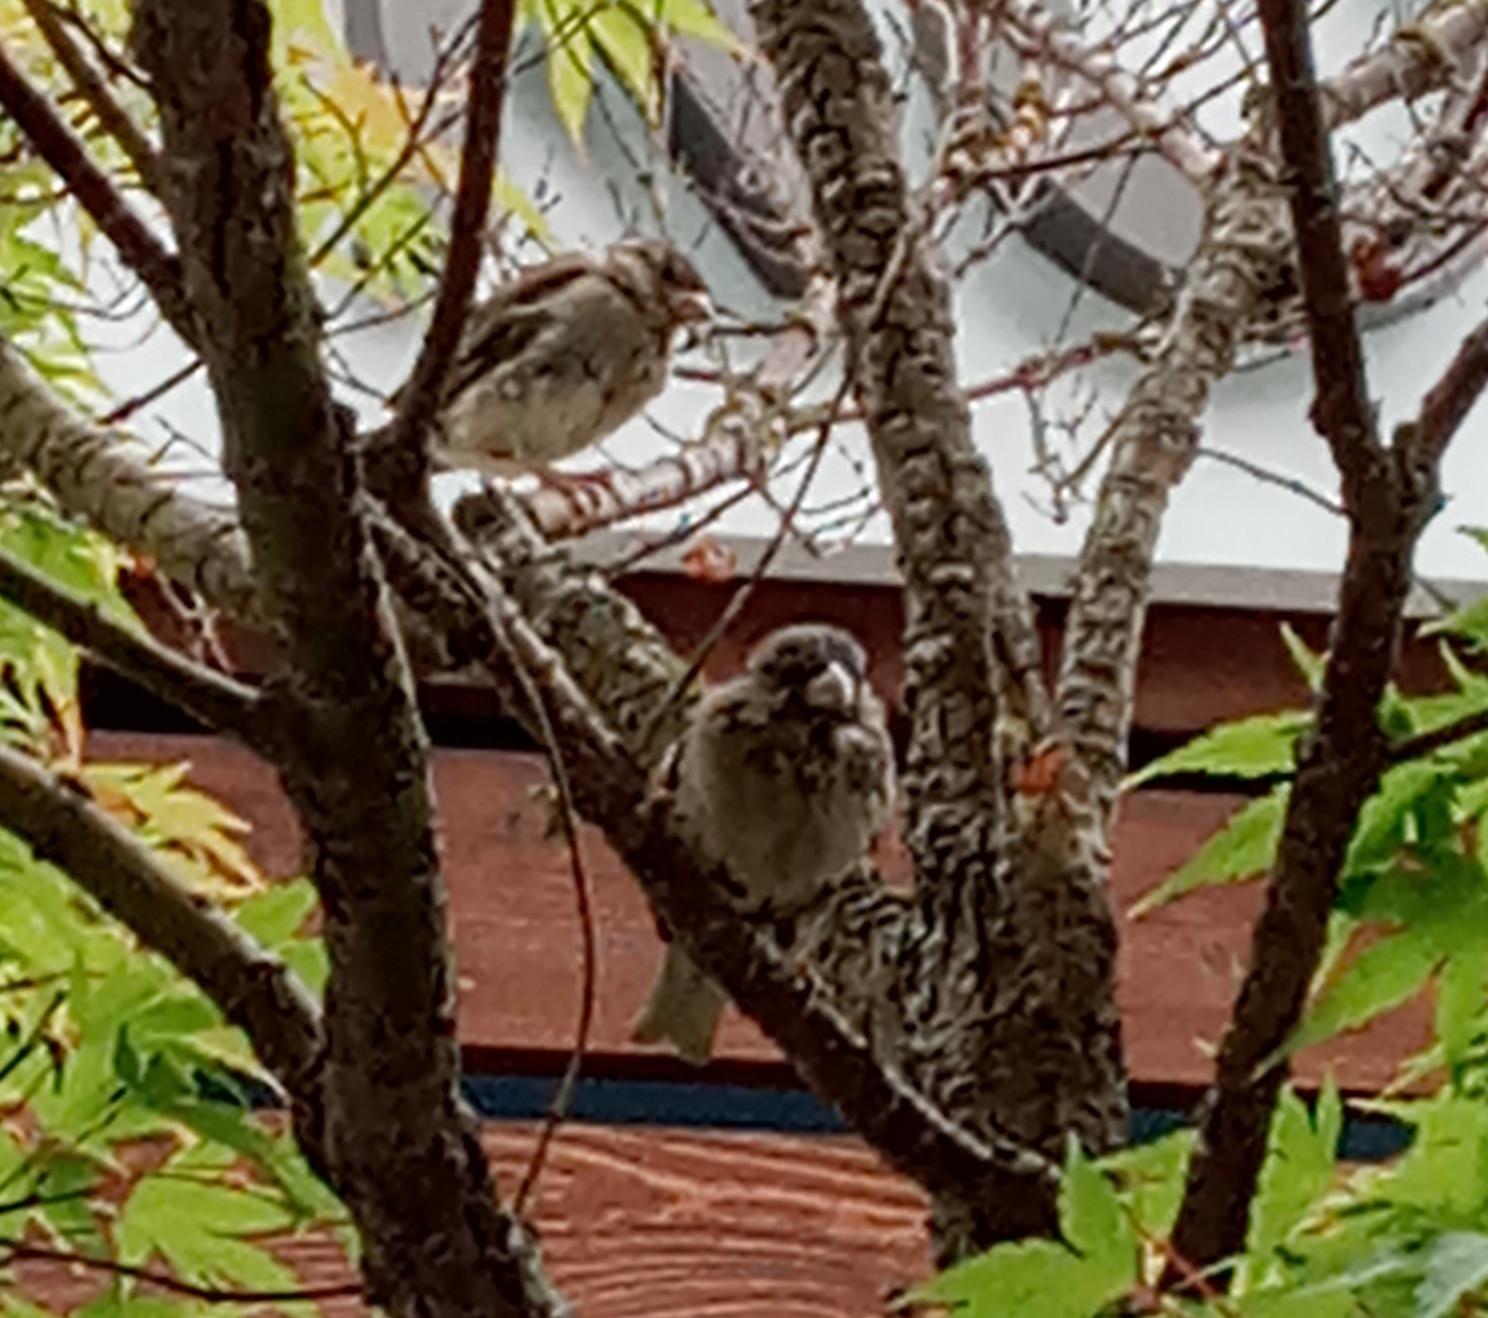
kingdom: Animalia
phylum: Chordata
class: Aves
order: Passeriformes
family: Passeridae
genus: Passer
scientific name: Passer domesticus
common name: House sparrow
